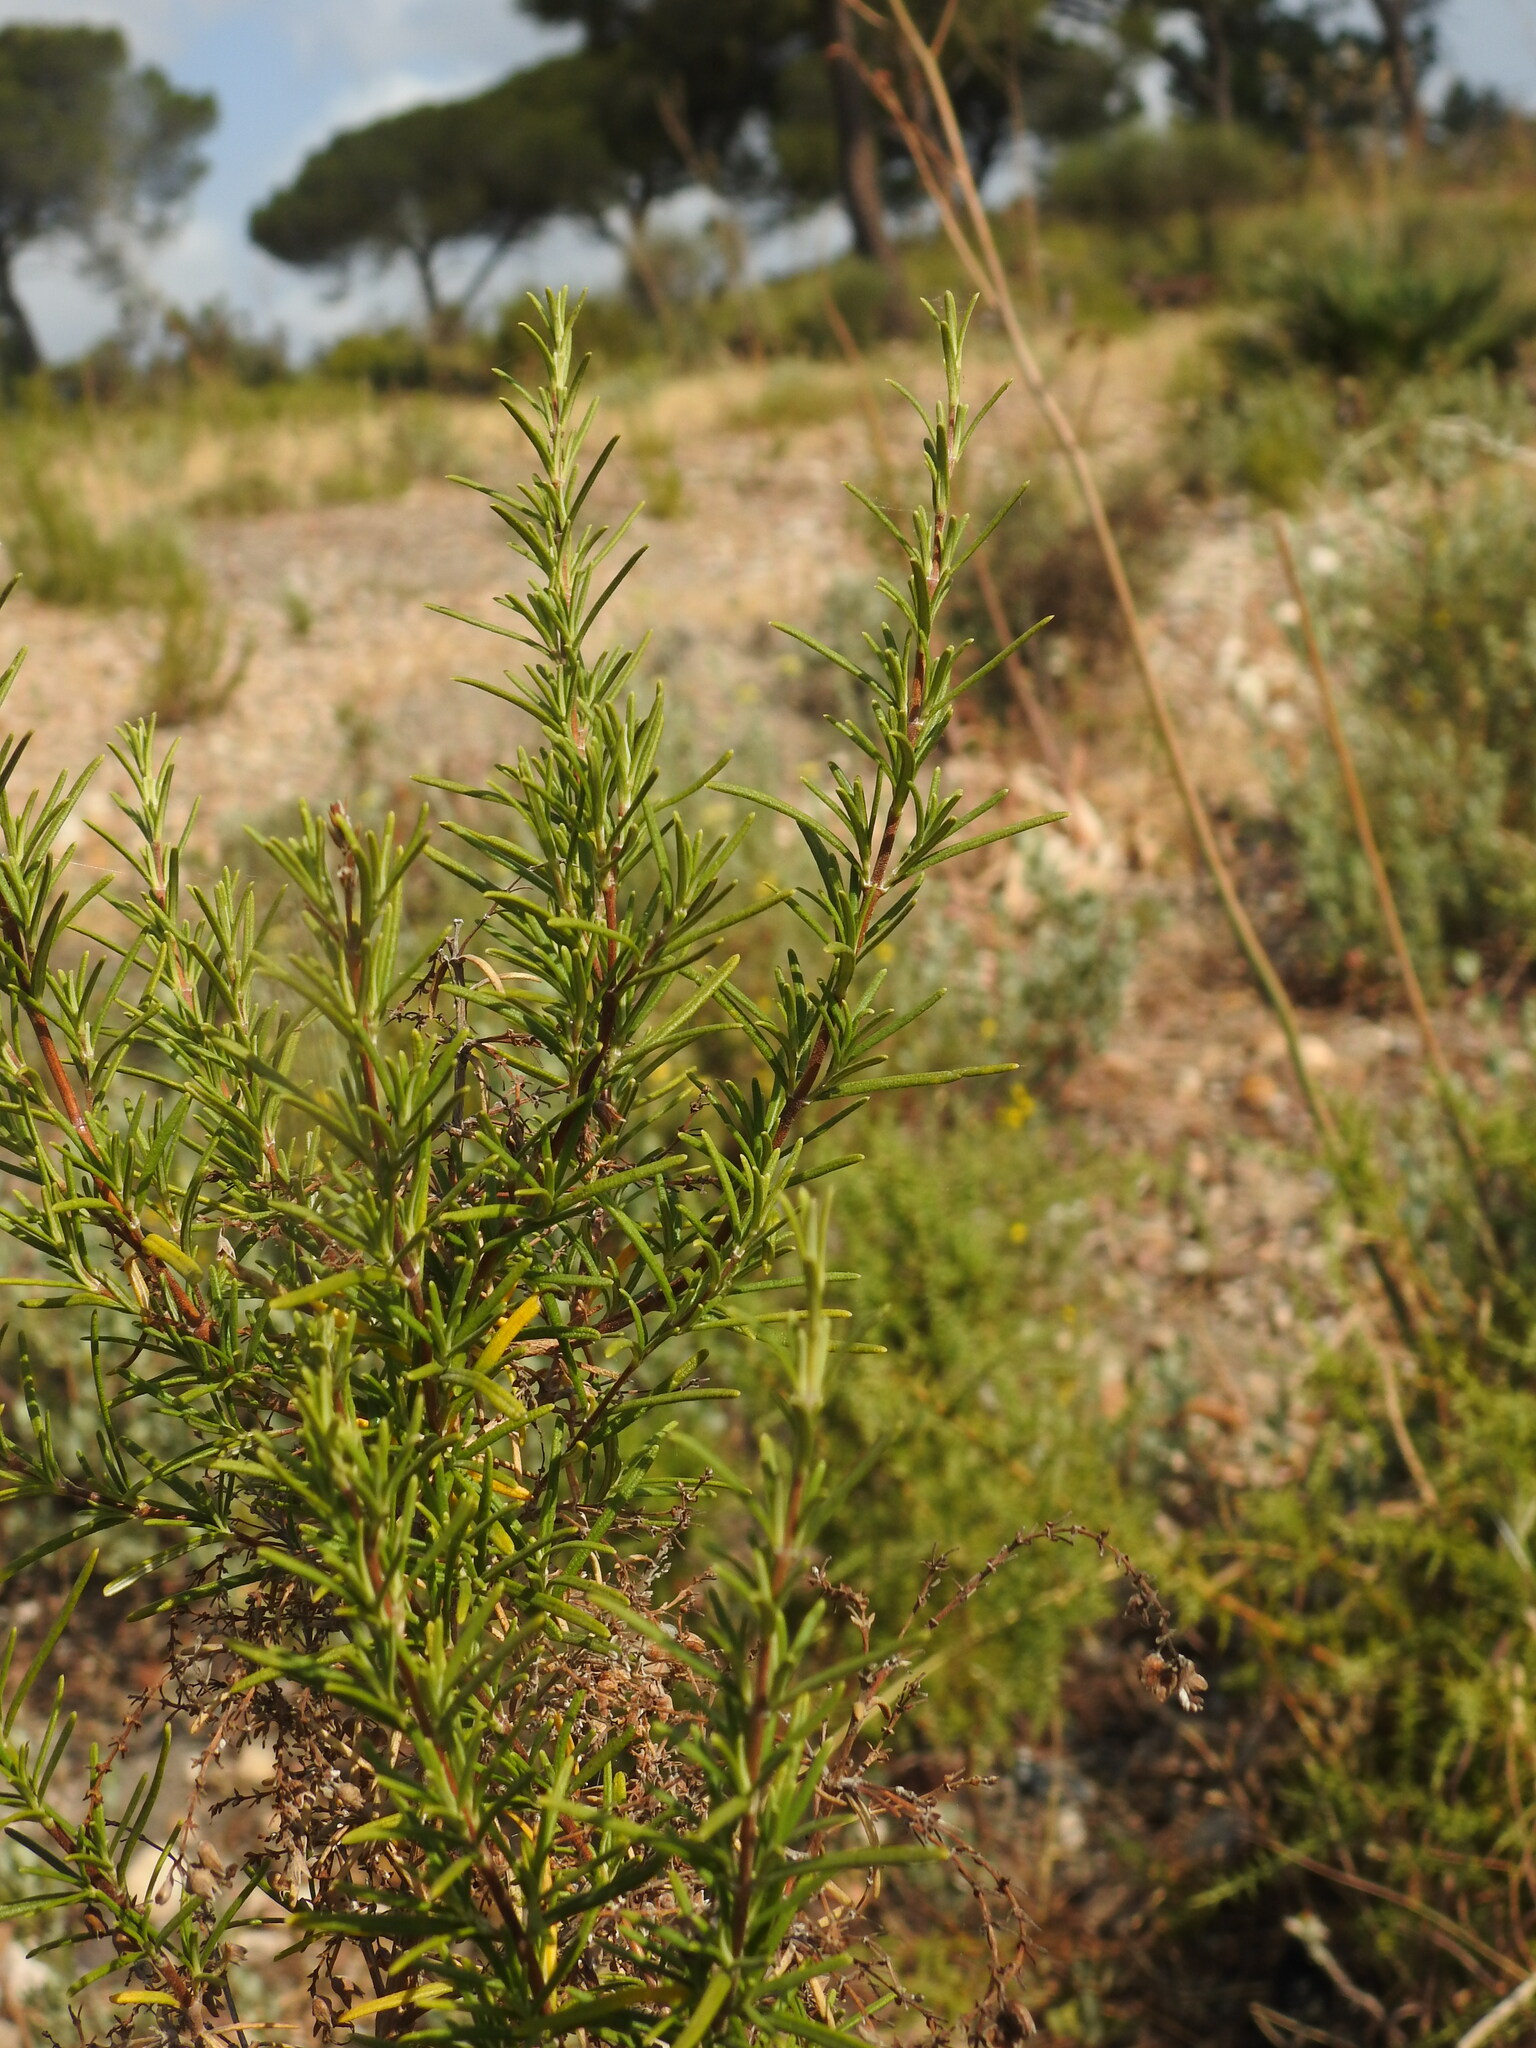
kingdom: Plantae
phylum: Tracheophyta
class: Magnoliopsida
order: Lamiales
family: Lamiaceae
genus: Salvia
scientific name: Salvia rosmarinus
